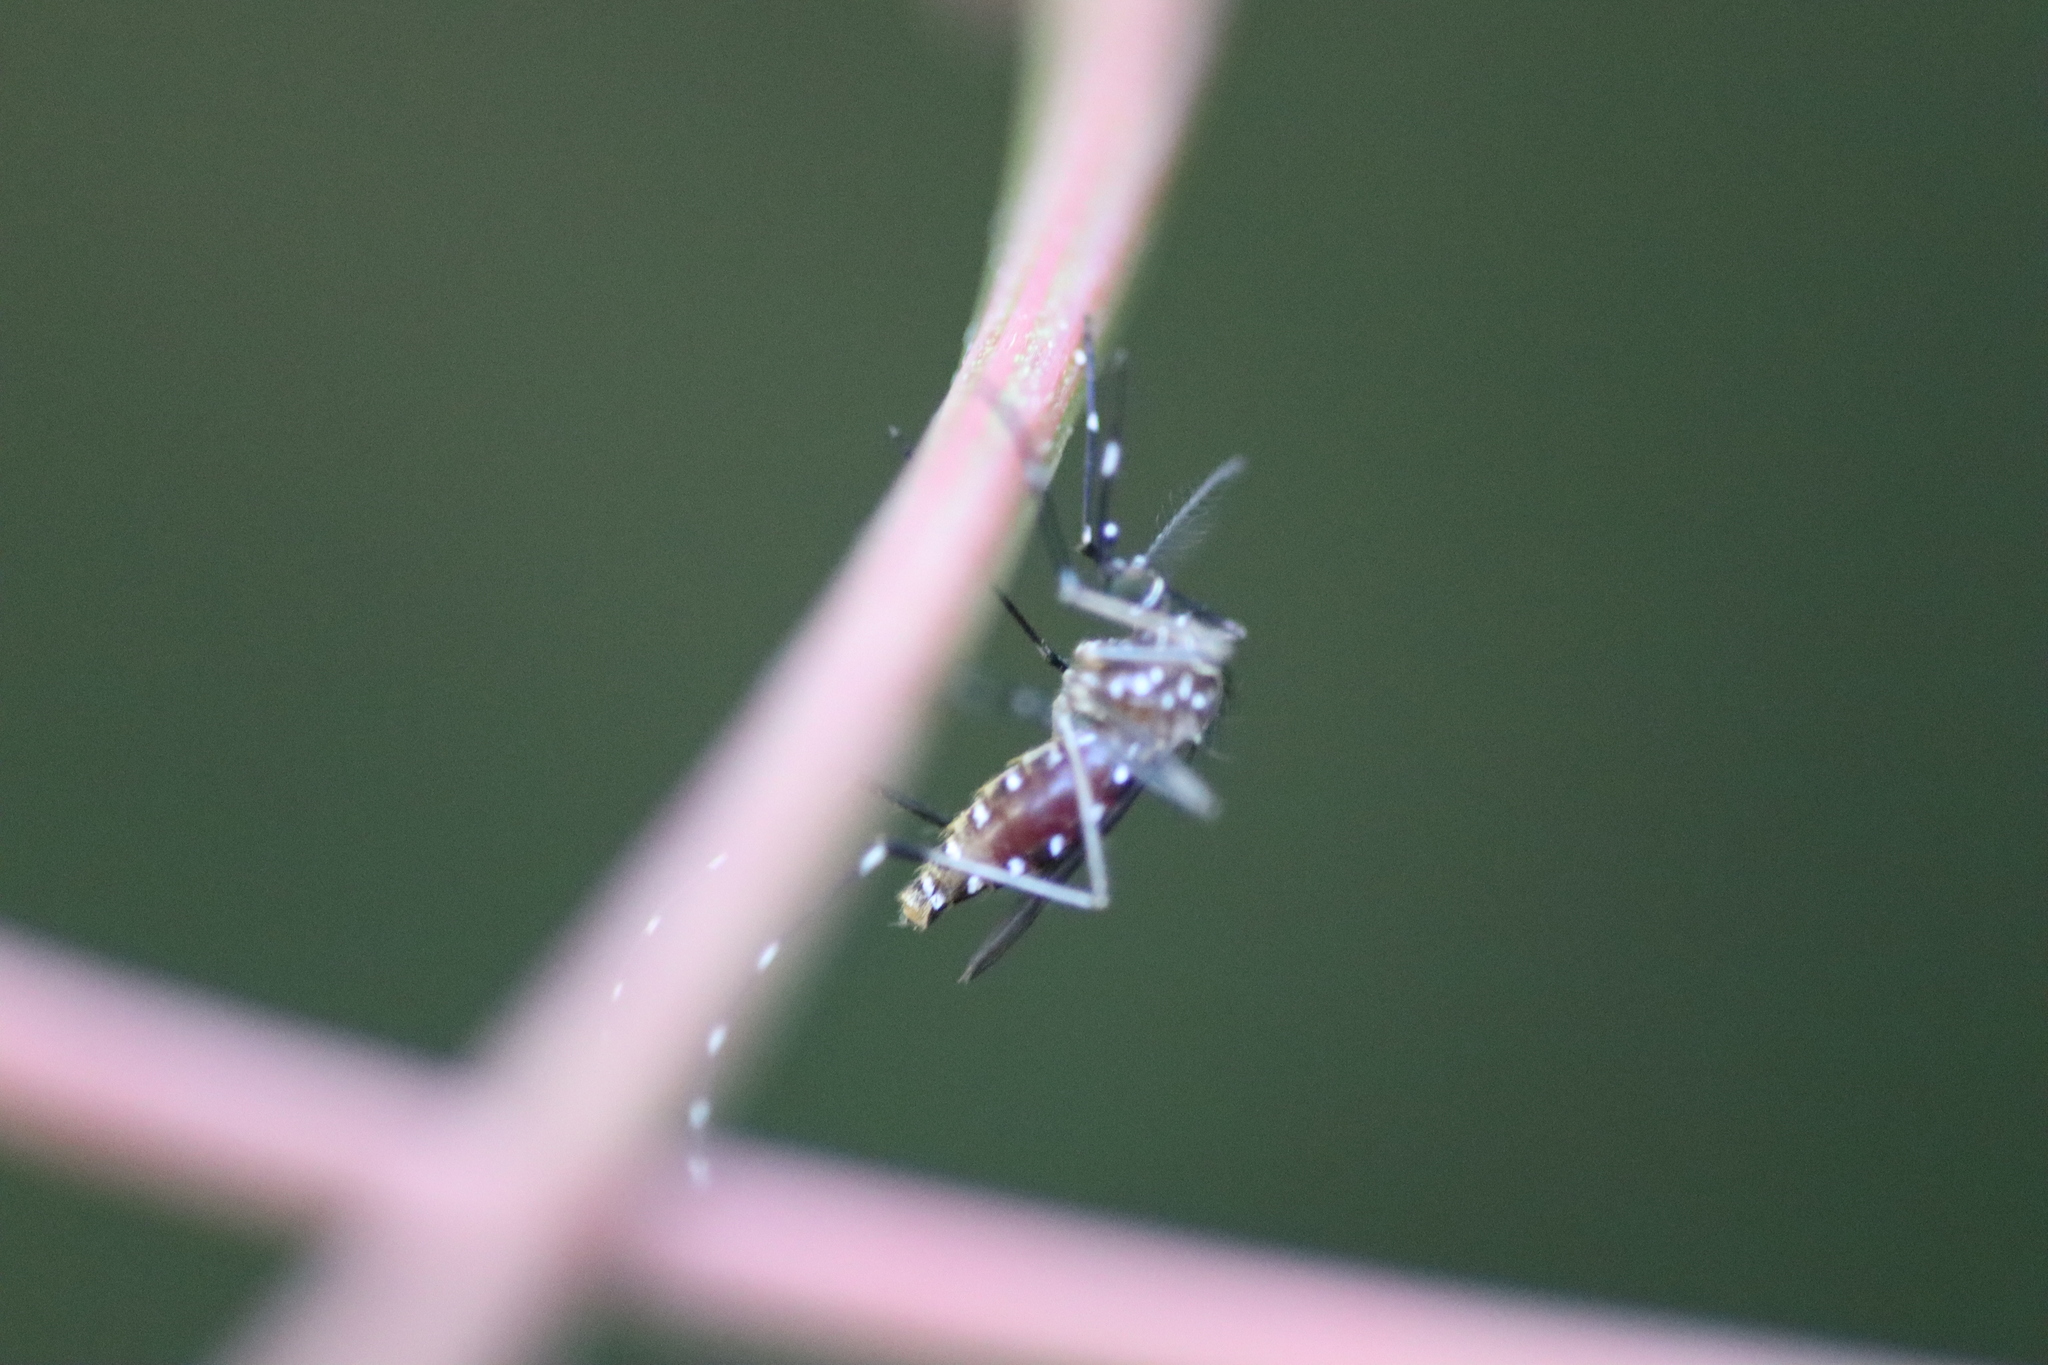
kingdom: Animalia
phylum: Arthropoda
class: Insecta
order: Diptera
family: Culicidae
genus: Aedes
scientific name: Aedes notoscriptus
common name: Australian backyard mosquito
